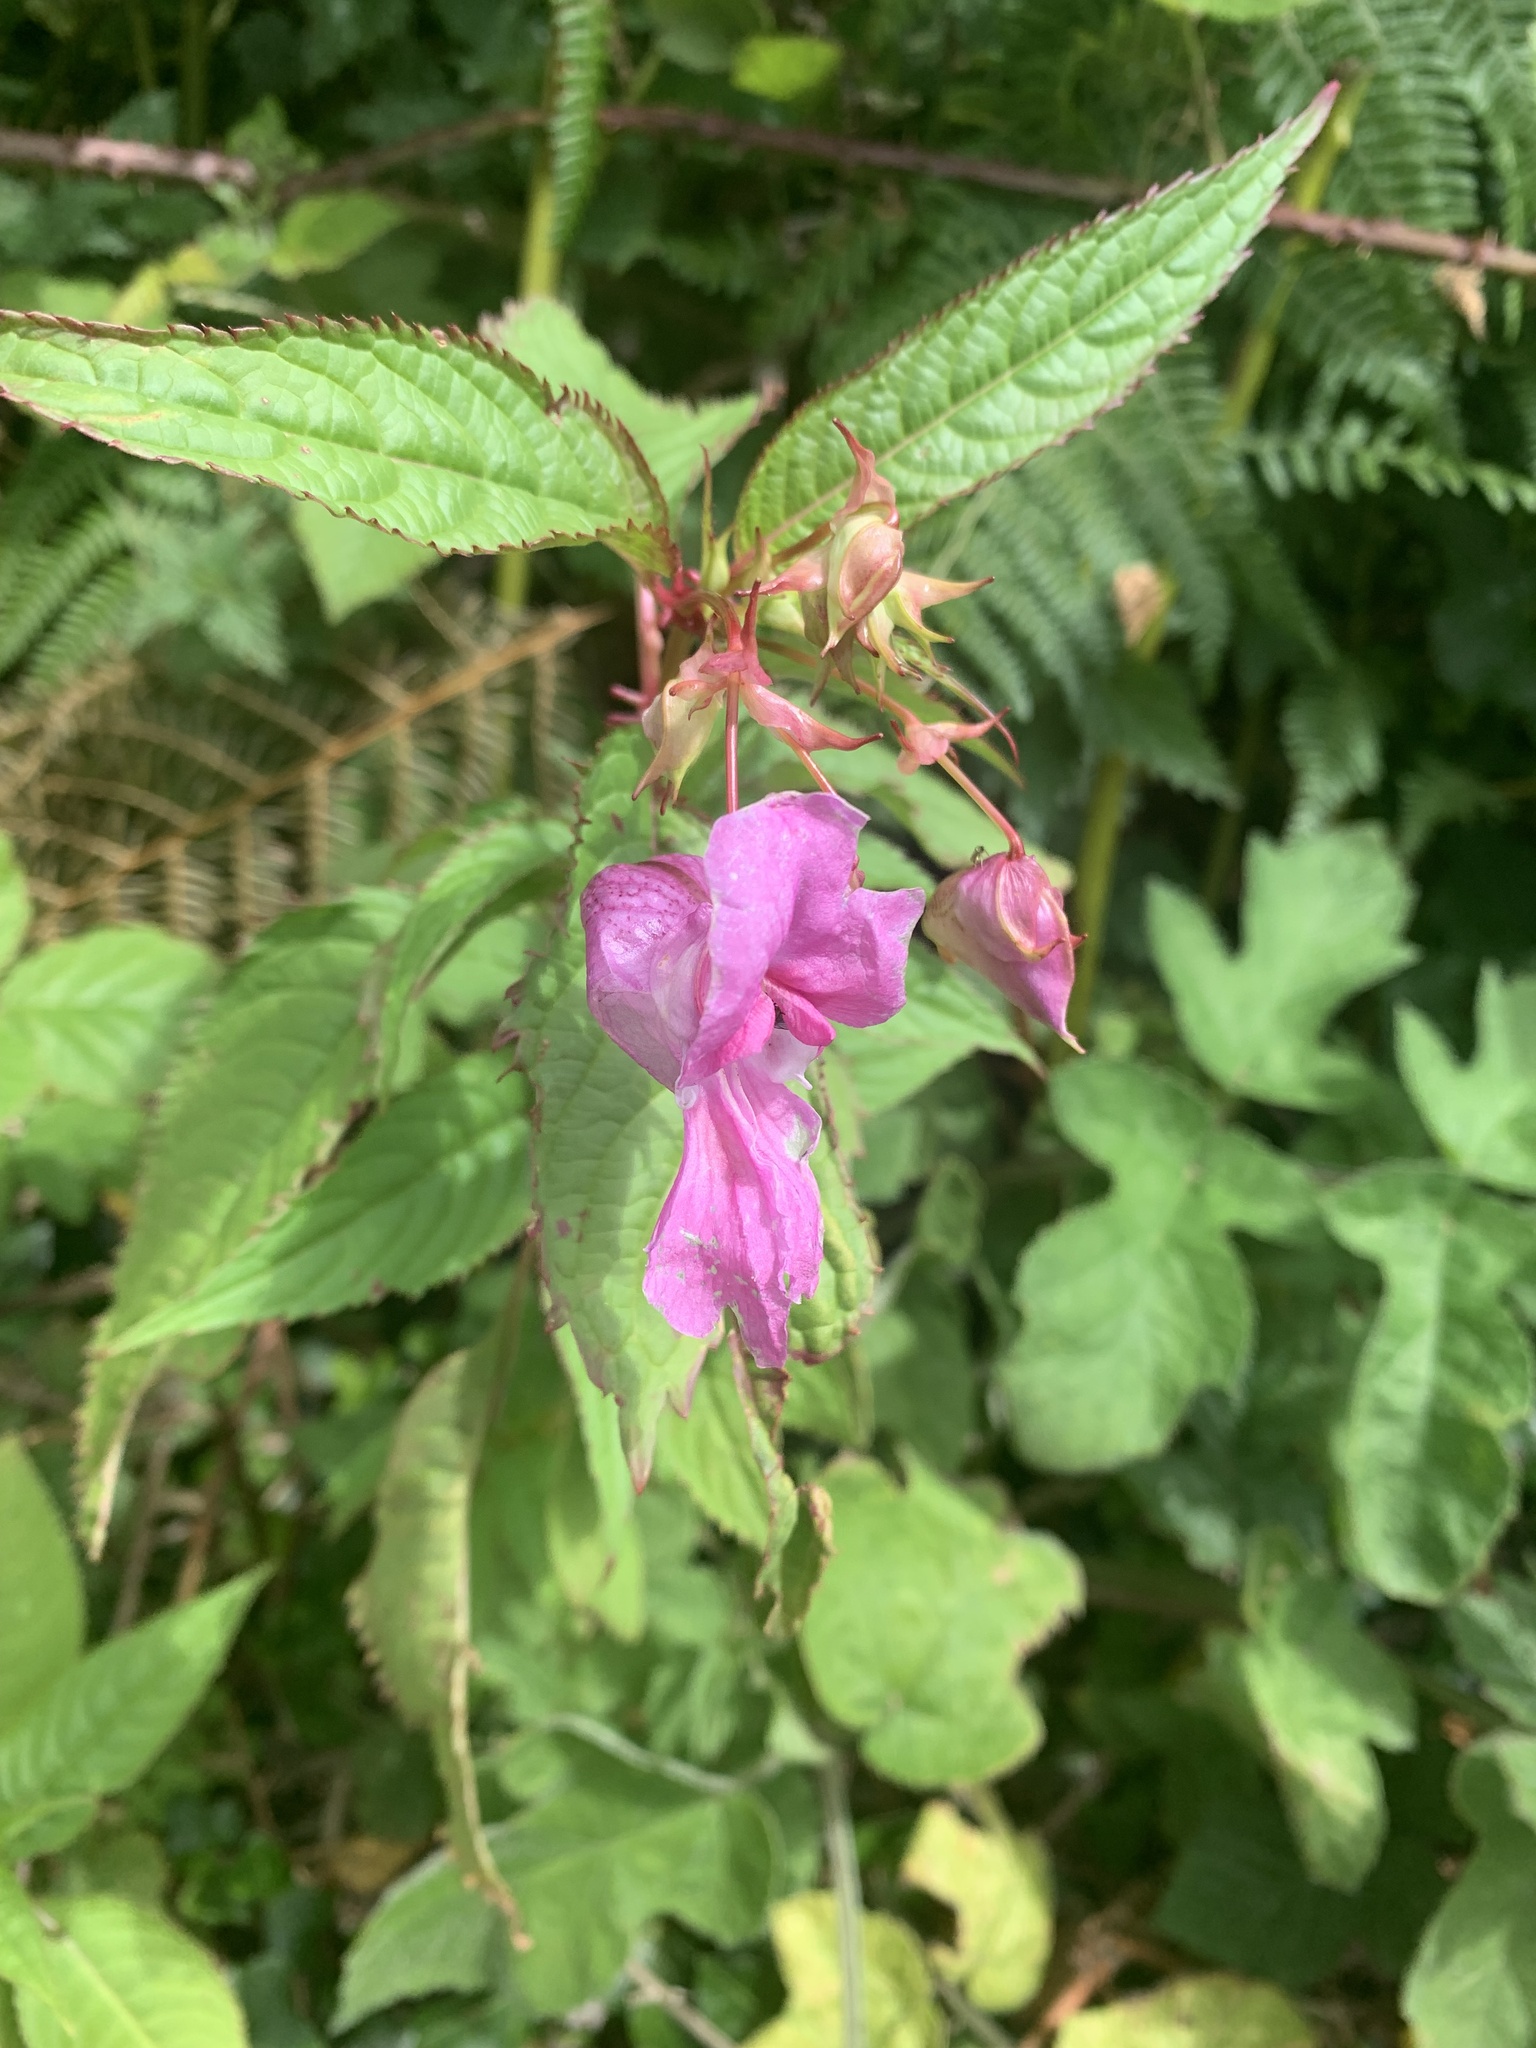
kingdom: Plantae
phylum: Tracheophyta
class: Magnoliopsida
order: Ericales
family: Balsaminaceae
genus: Impatiens
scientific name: Impatiens glandulifera
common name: Himalayan balsam
